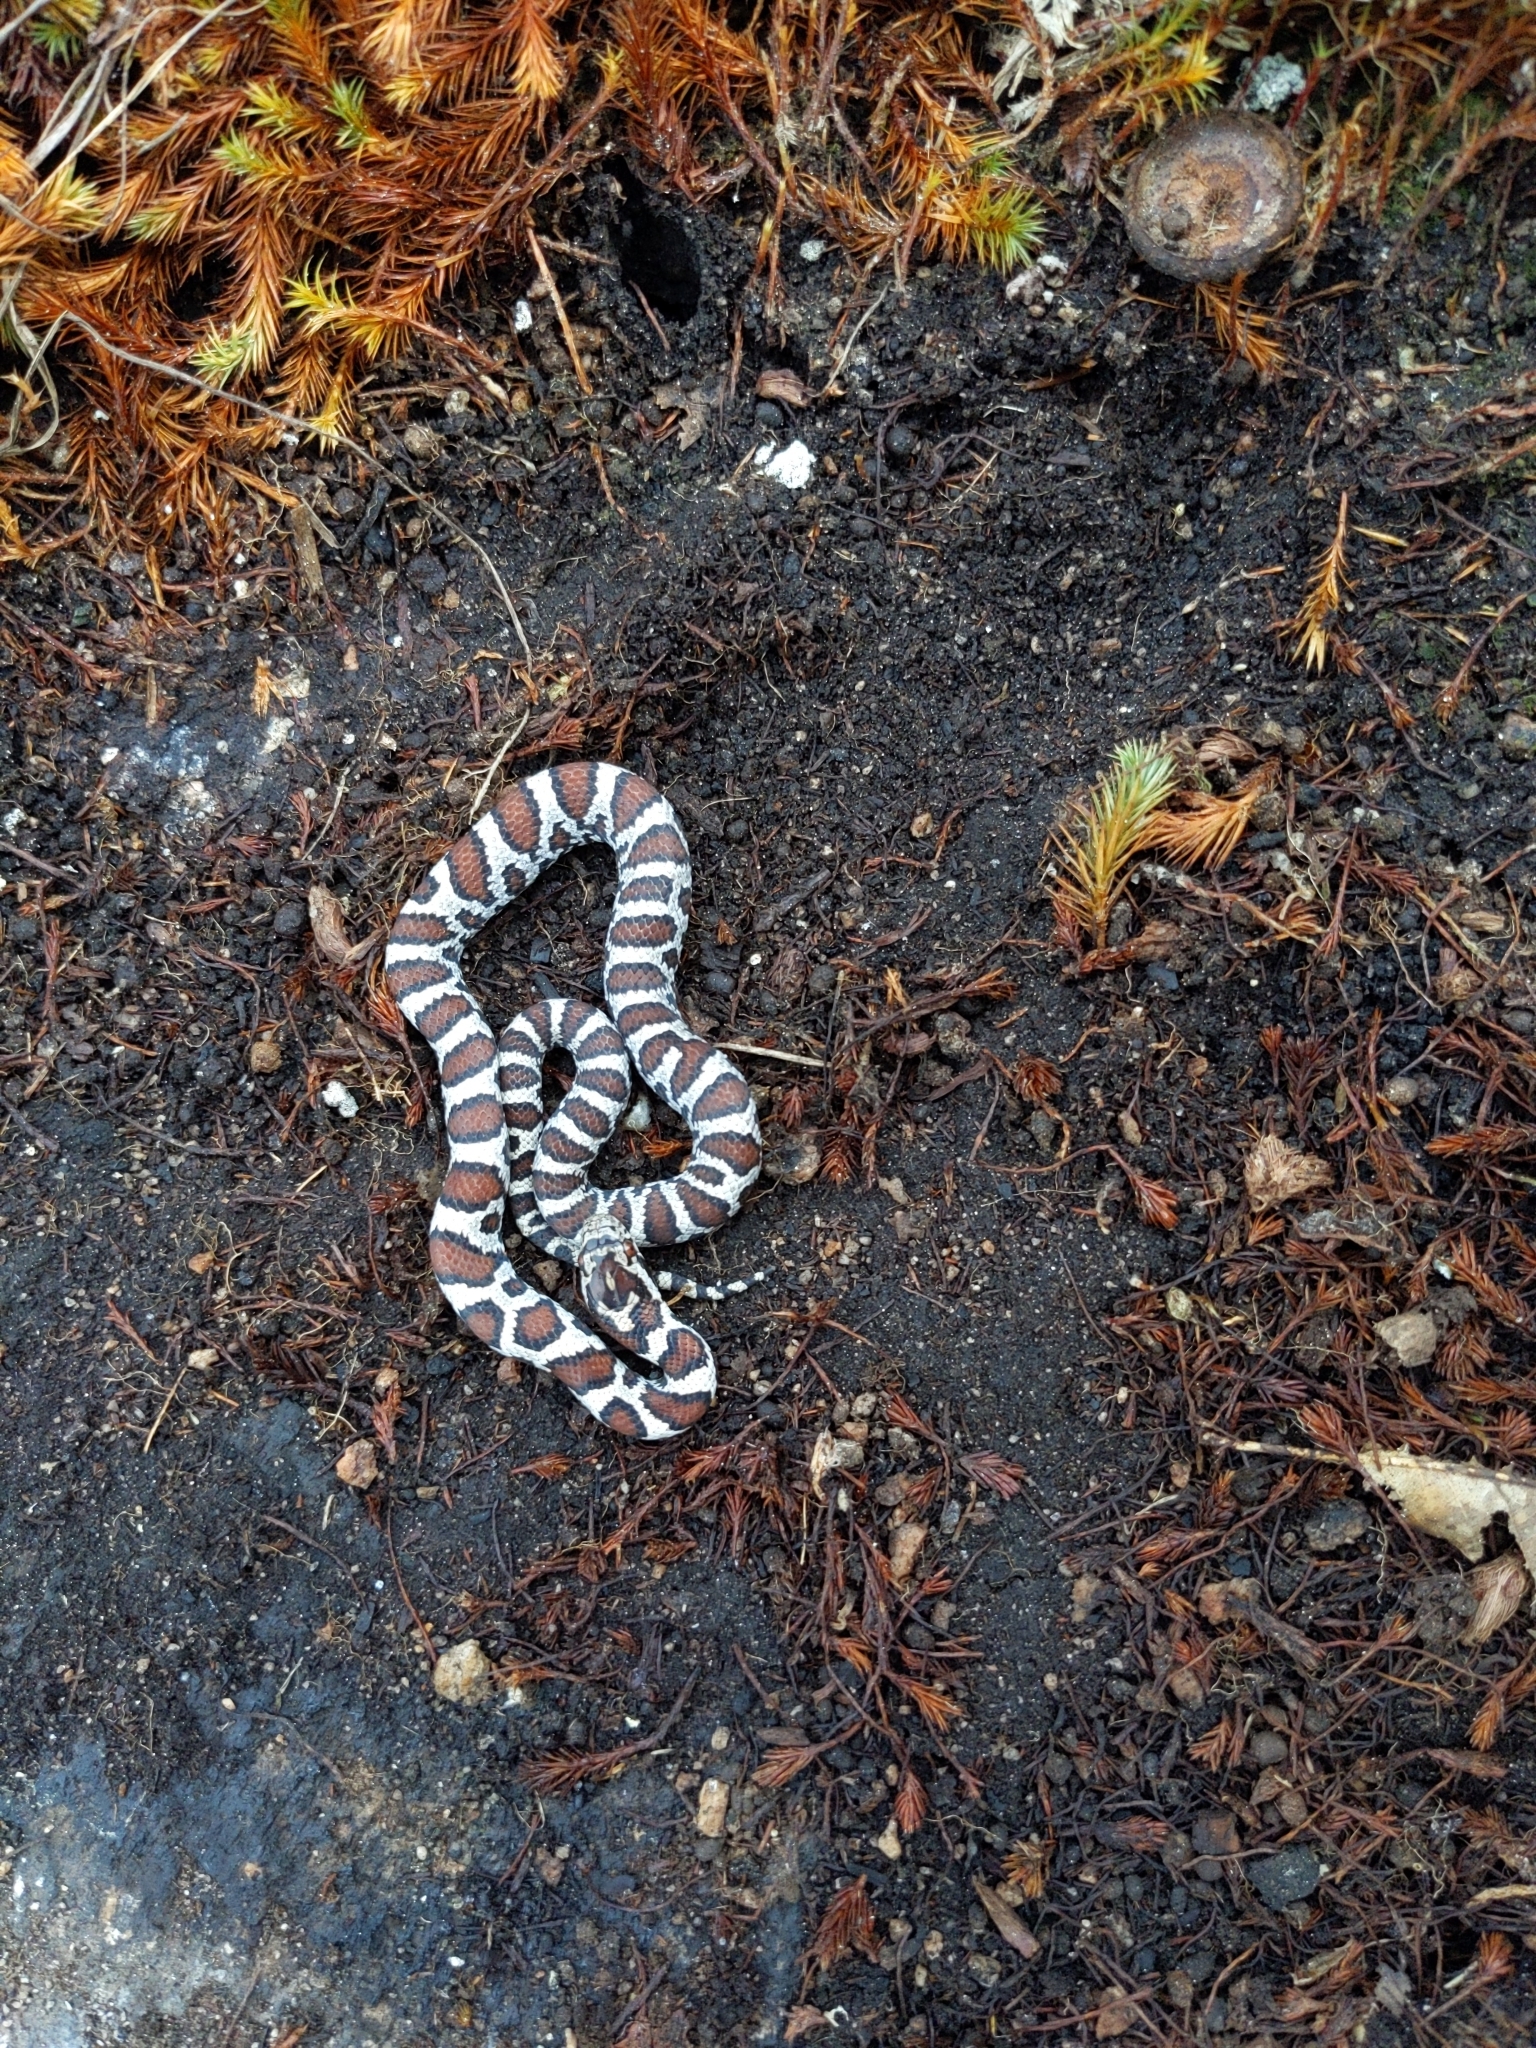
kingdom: Animalia
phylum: Chordata
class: Squamata
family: Colubridae
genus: Lampropeltis
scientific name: Lampropeltis triangulum
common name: Eastern milksnake
